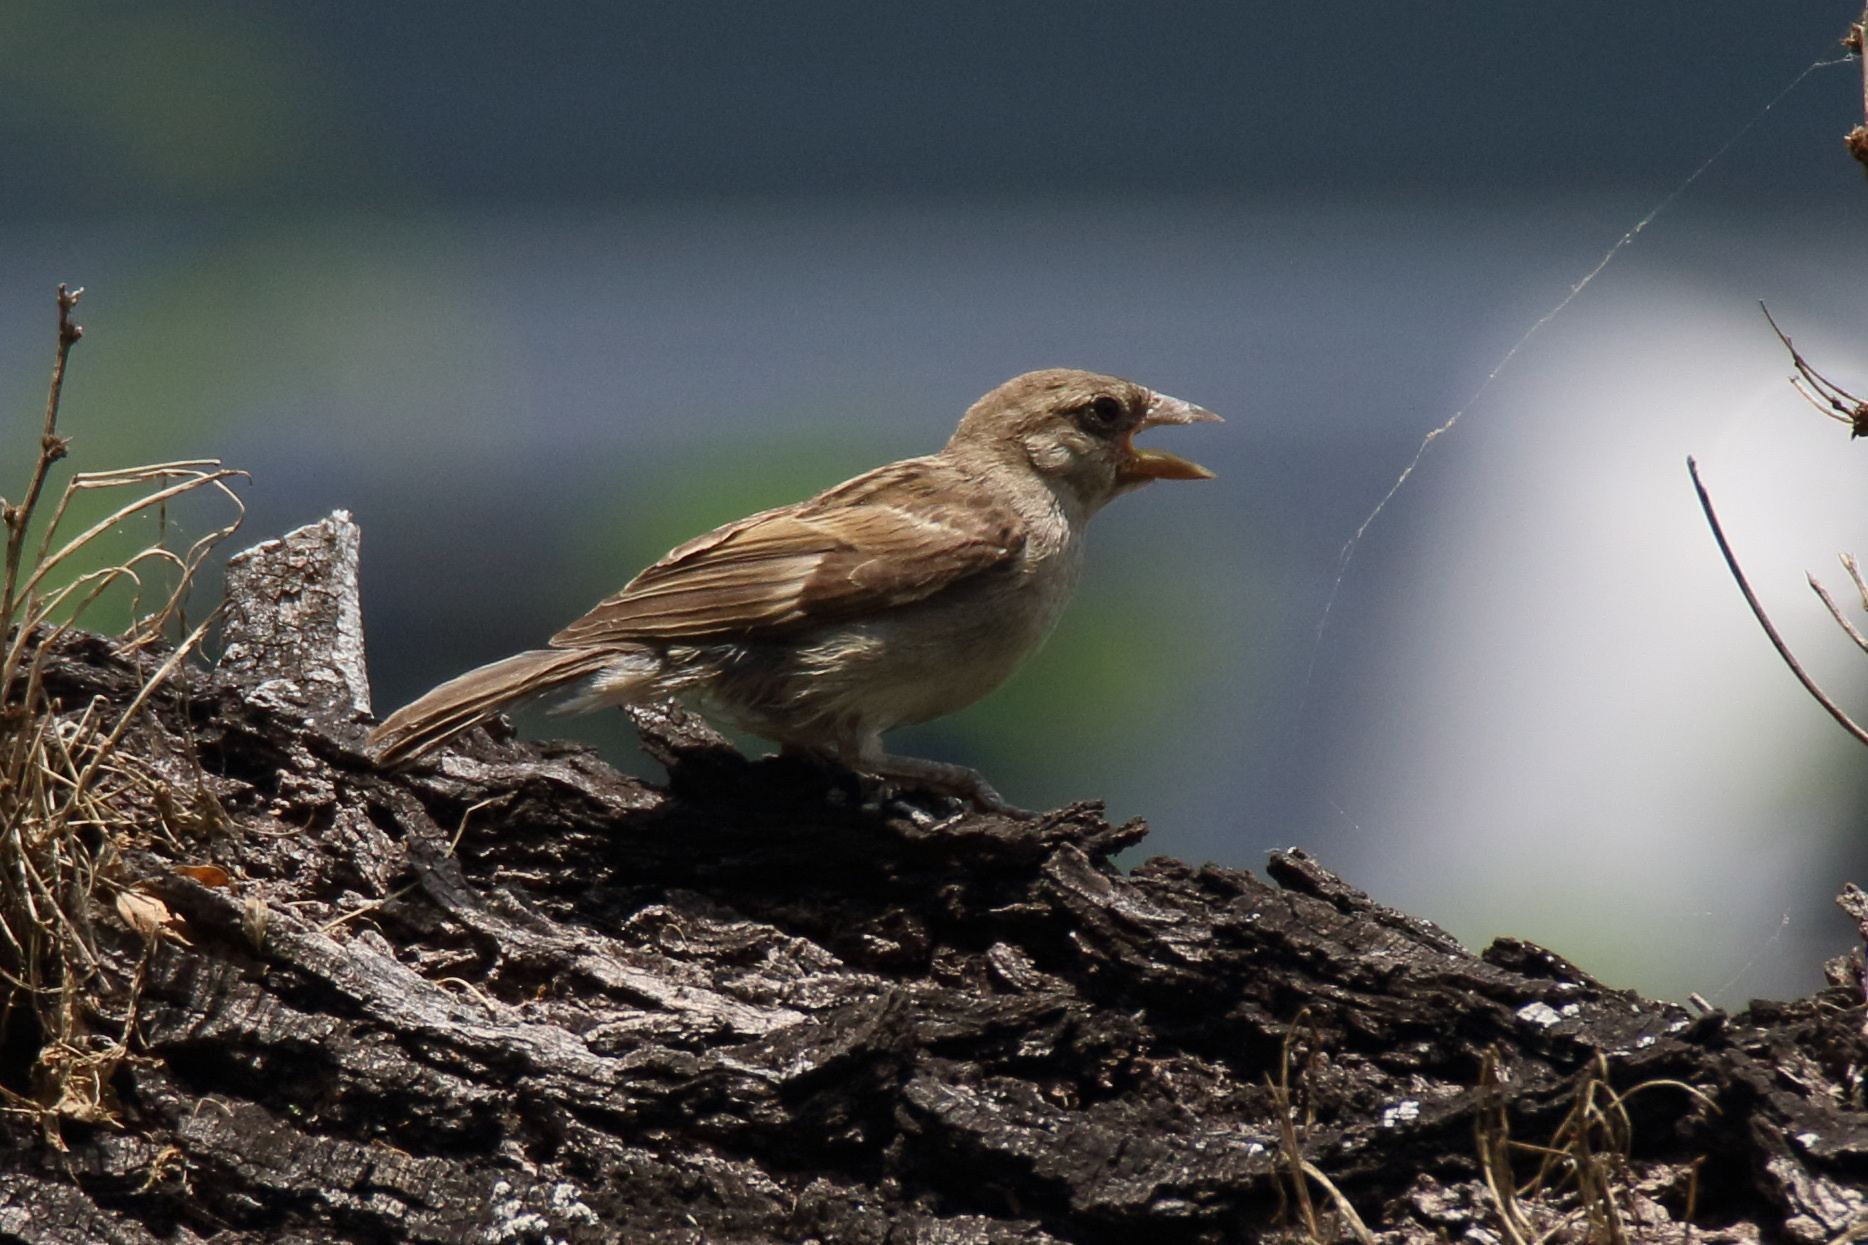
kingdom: Animalia
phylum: Chordata
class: Aves
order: Passeriformes
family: Passeridae
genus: Passer
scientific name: Passer domesticus
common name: House sparrow
